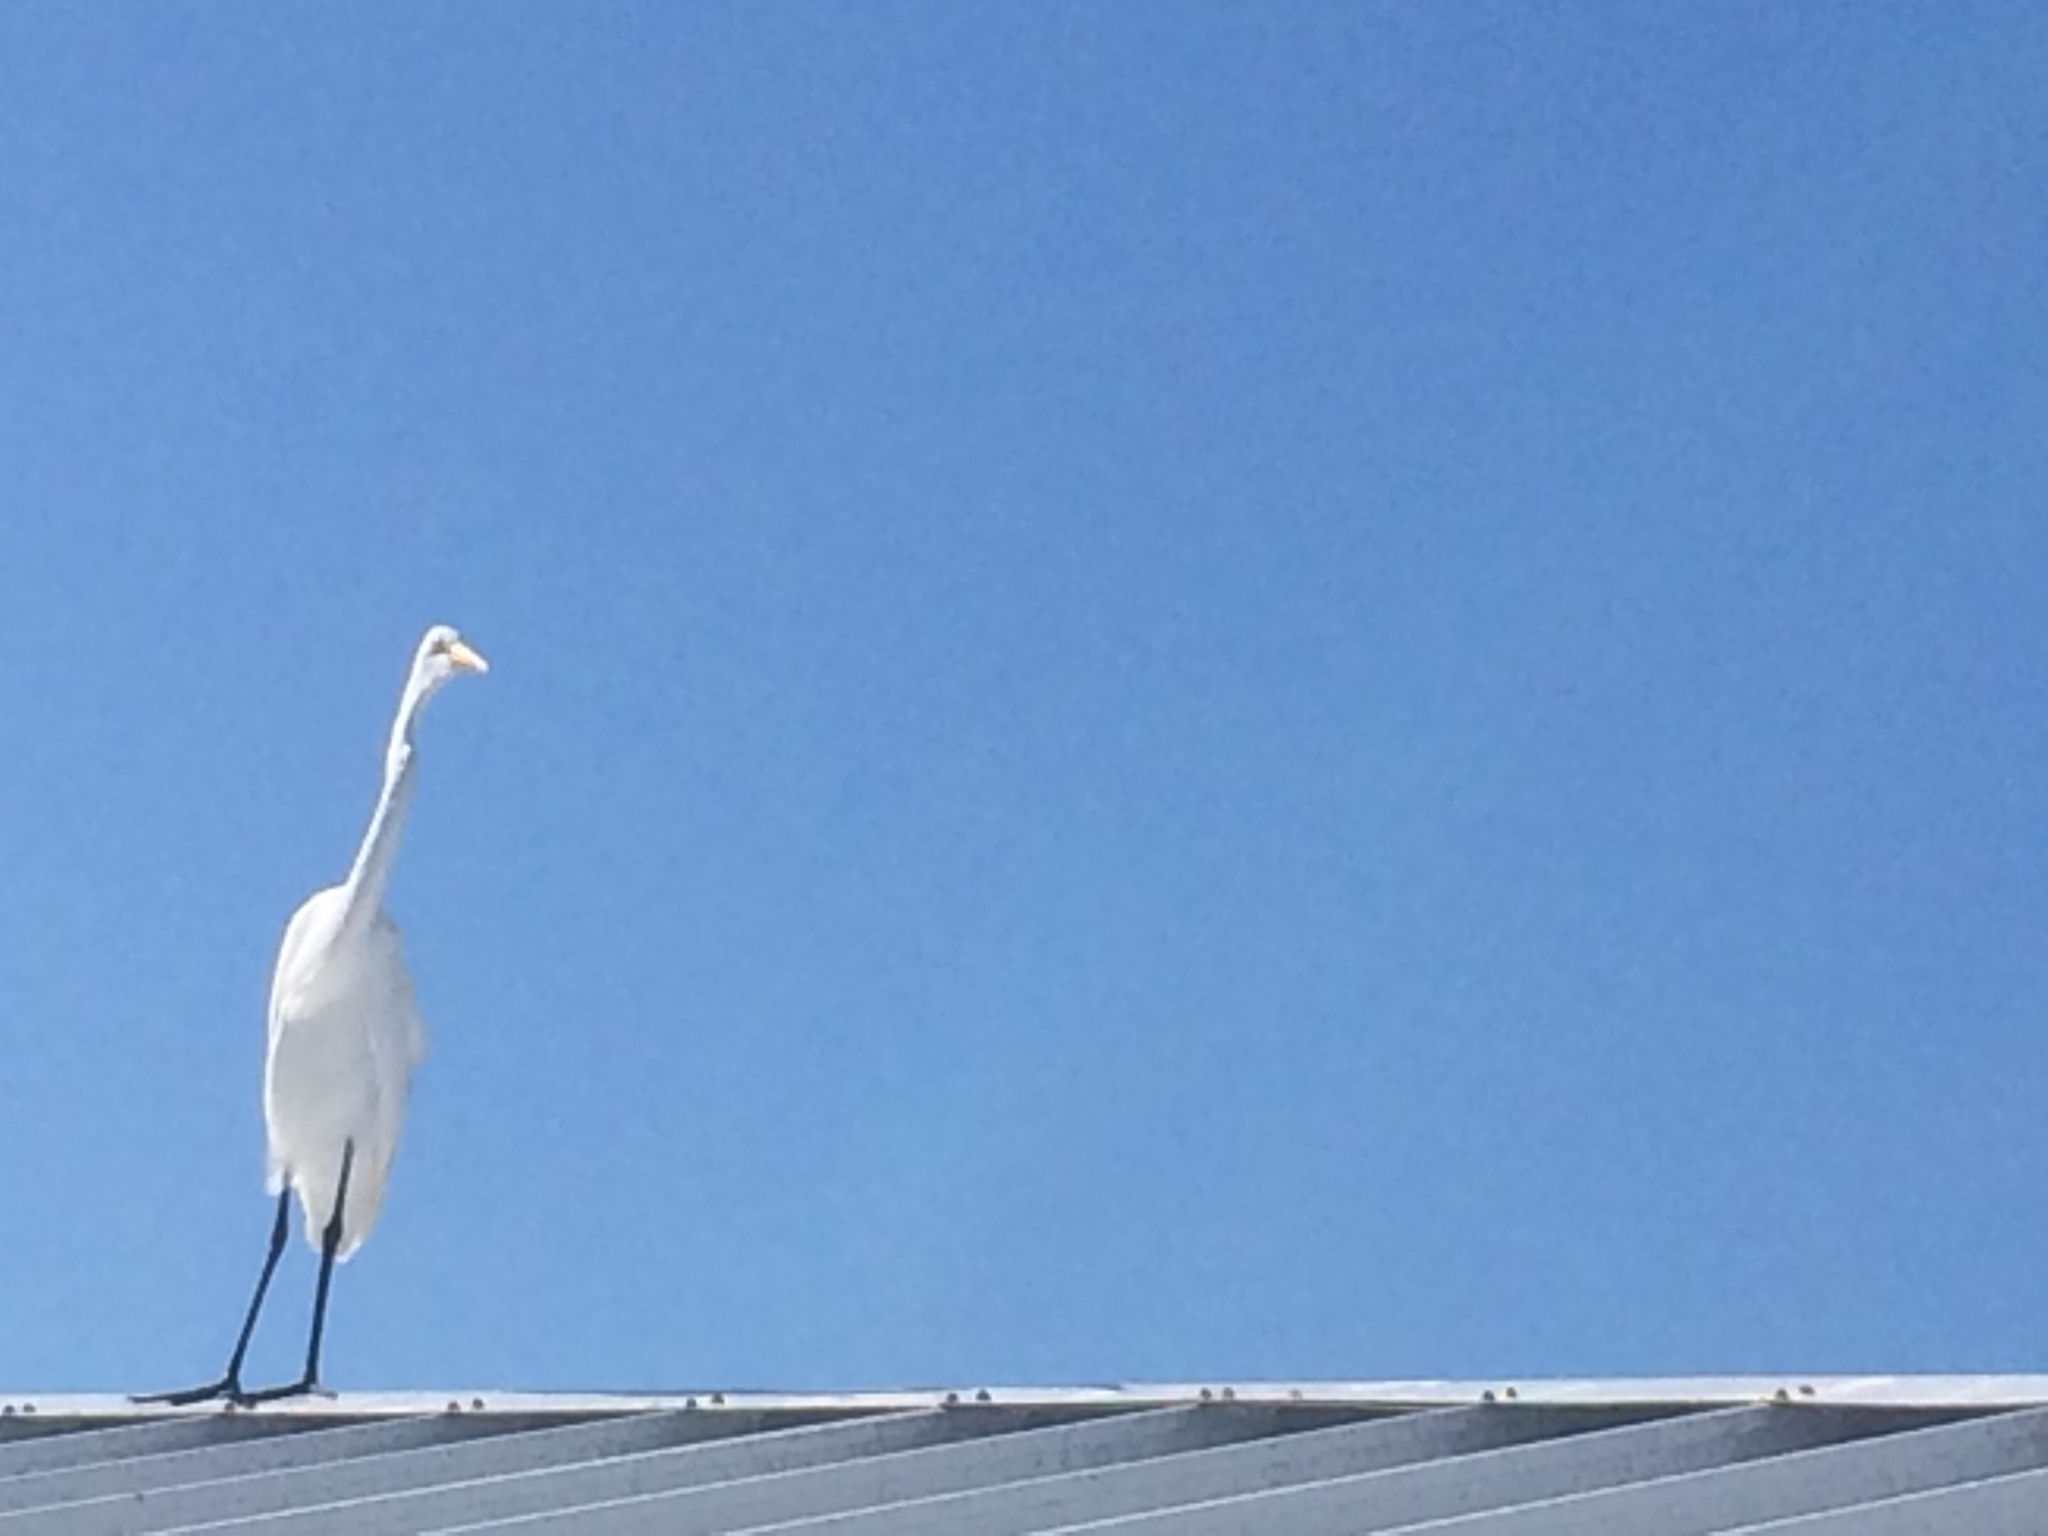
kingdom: Animalia
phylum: Chordata
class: Aves
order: Pelecaniformes
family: Ardeidae
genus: Ardea
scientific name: Ardea alba
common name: Great egret
